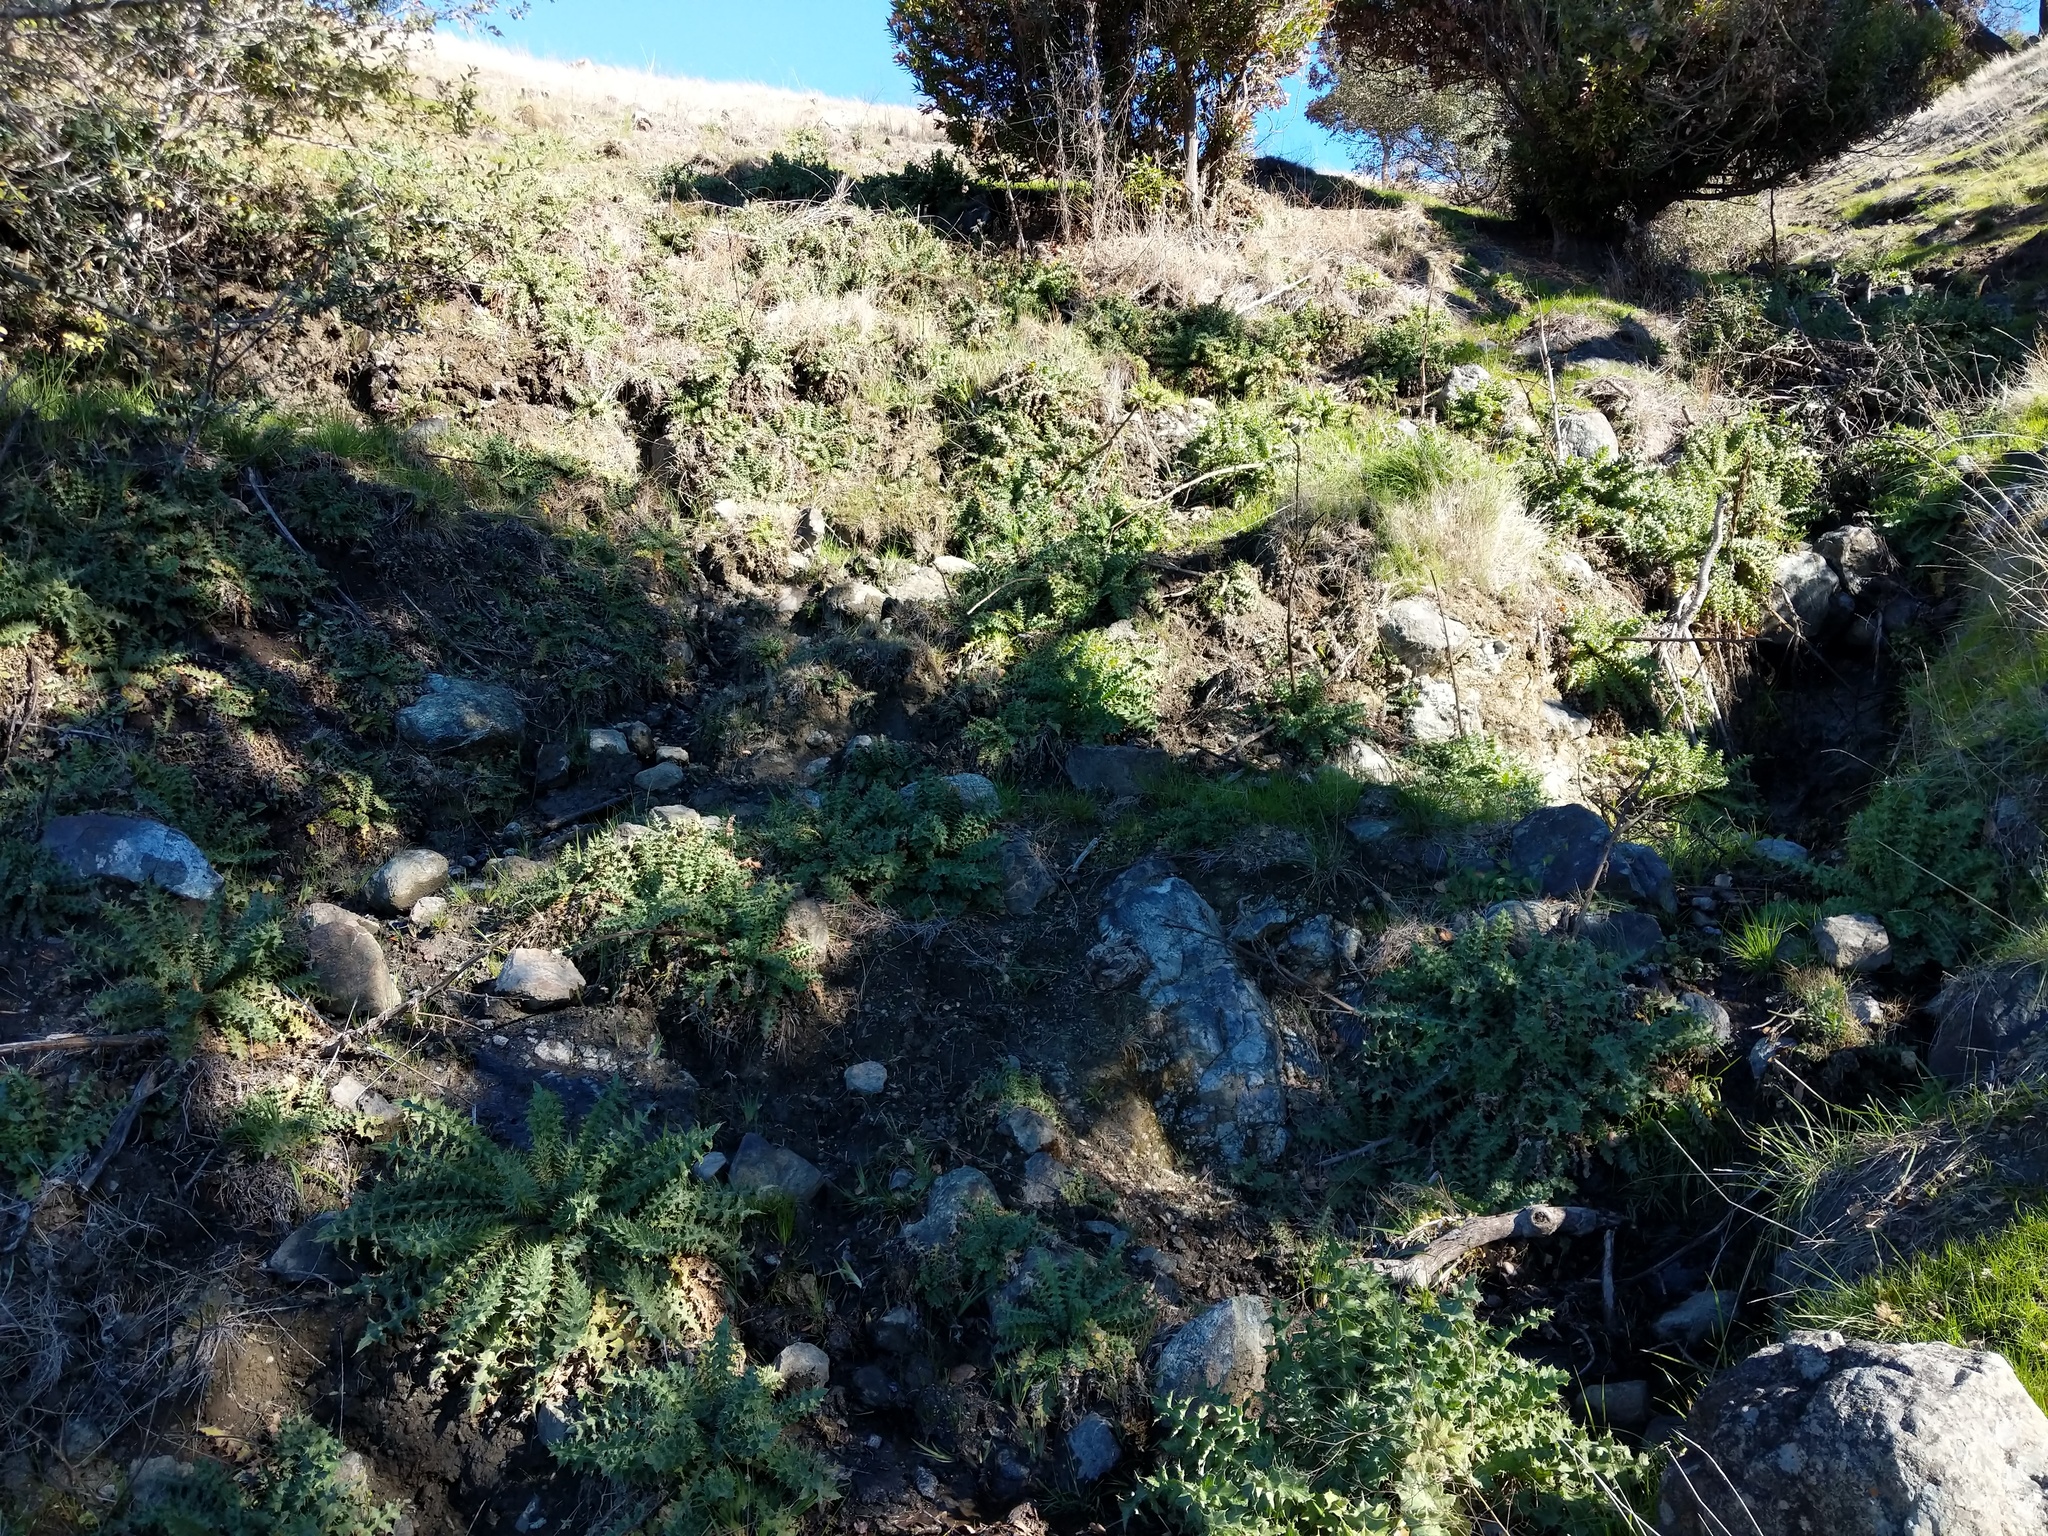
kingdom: Plantae
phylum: Tracheophyta
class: Magnoliopsida
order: Asterales
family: Asteraceae
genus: Cirsium
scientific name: Cirsium fontinale
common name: Fountain thistle
